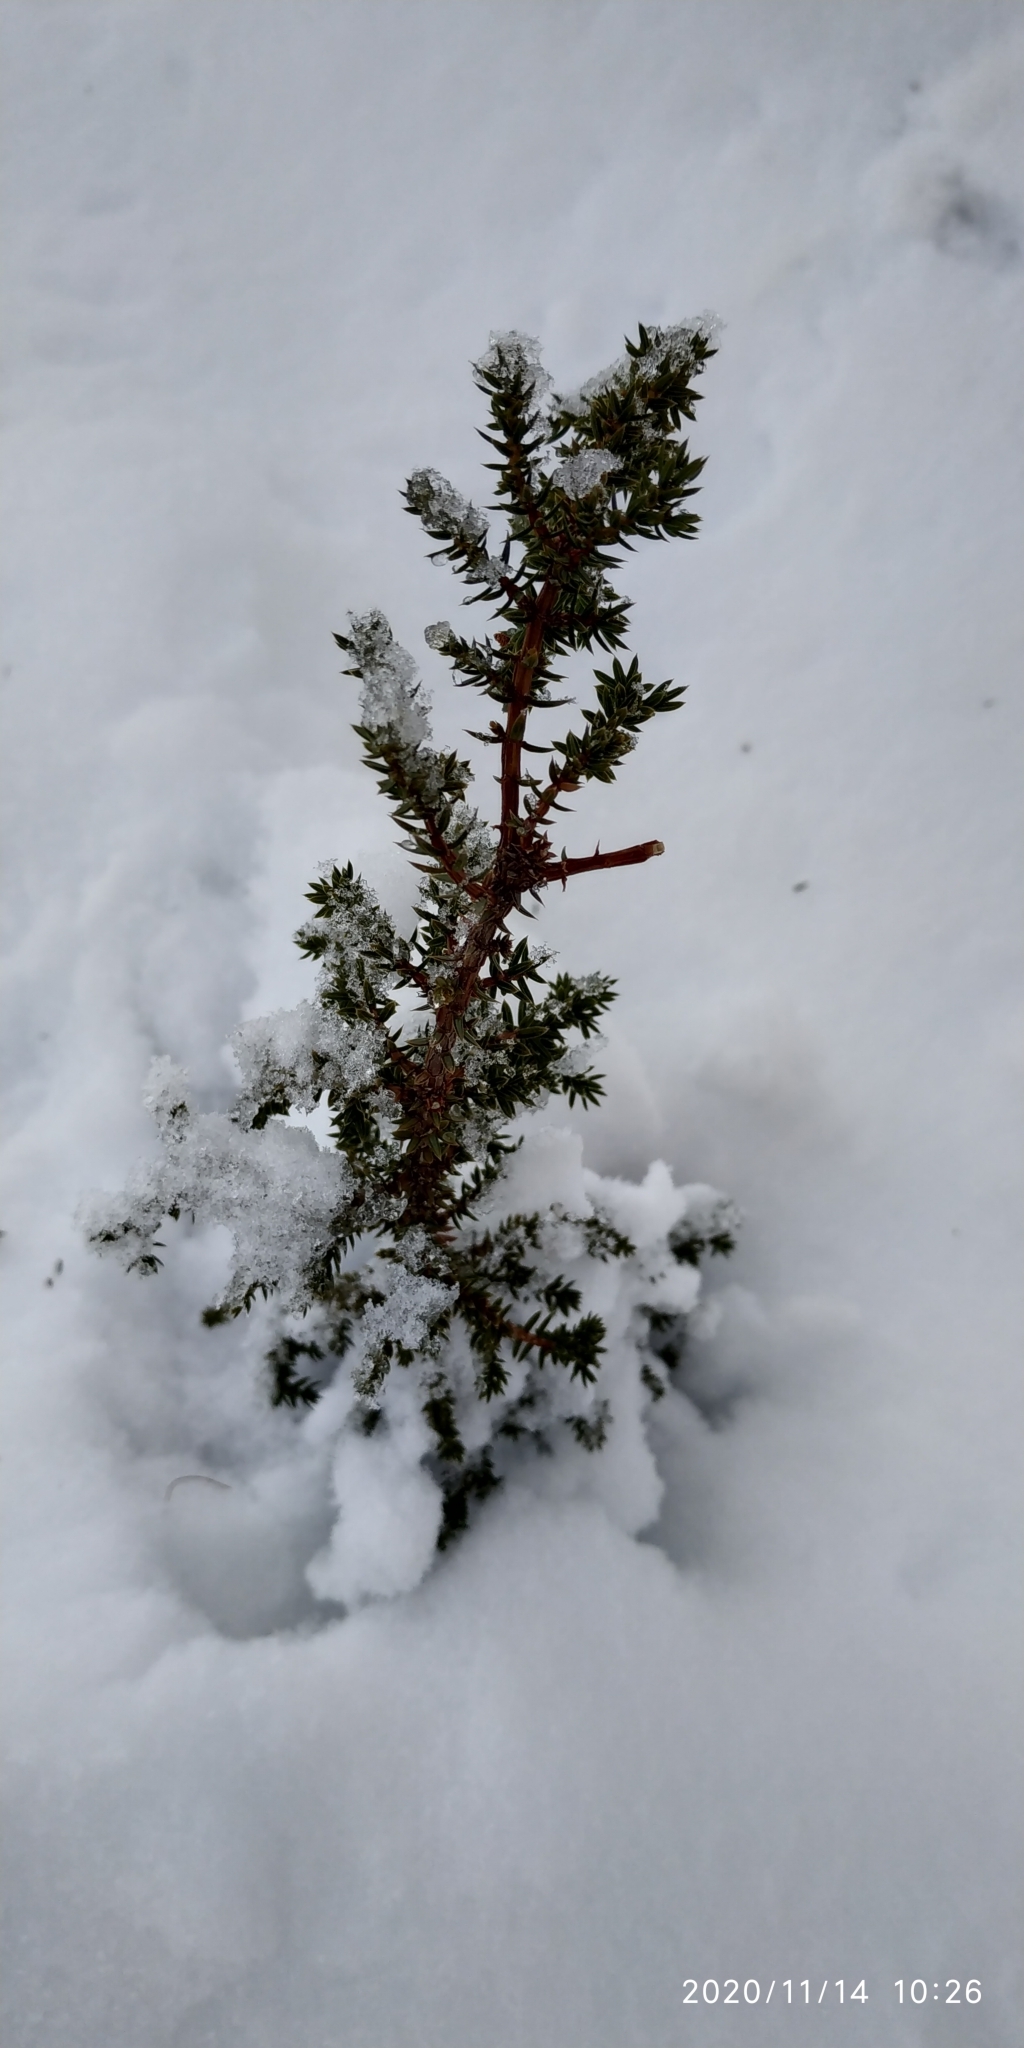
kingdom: Plantae
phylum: Tracheophyta
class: Pinopsida
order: Pinales
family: Cupressaceae
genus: Juniperus
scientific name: Juniperus communis
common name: Common juniper
